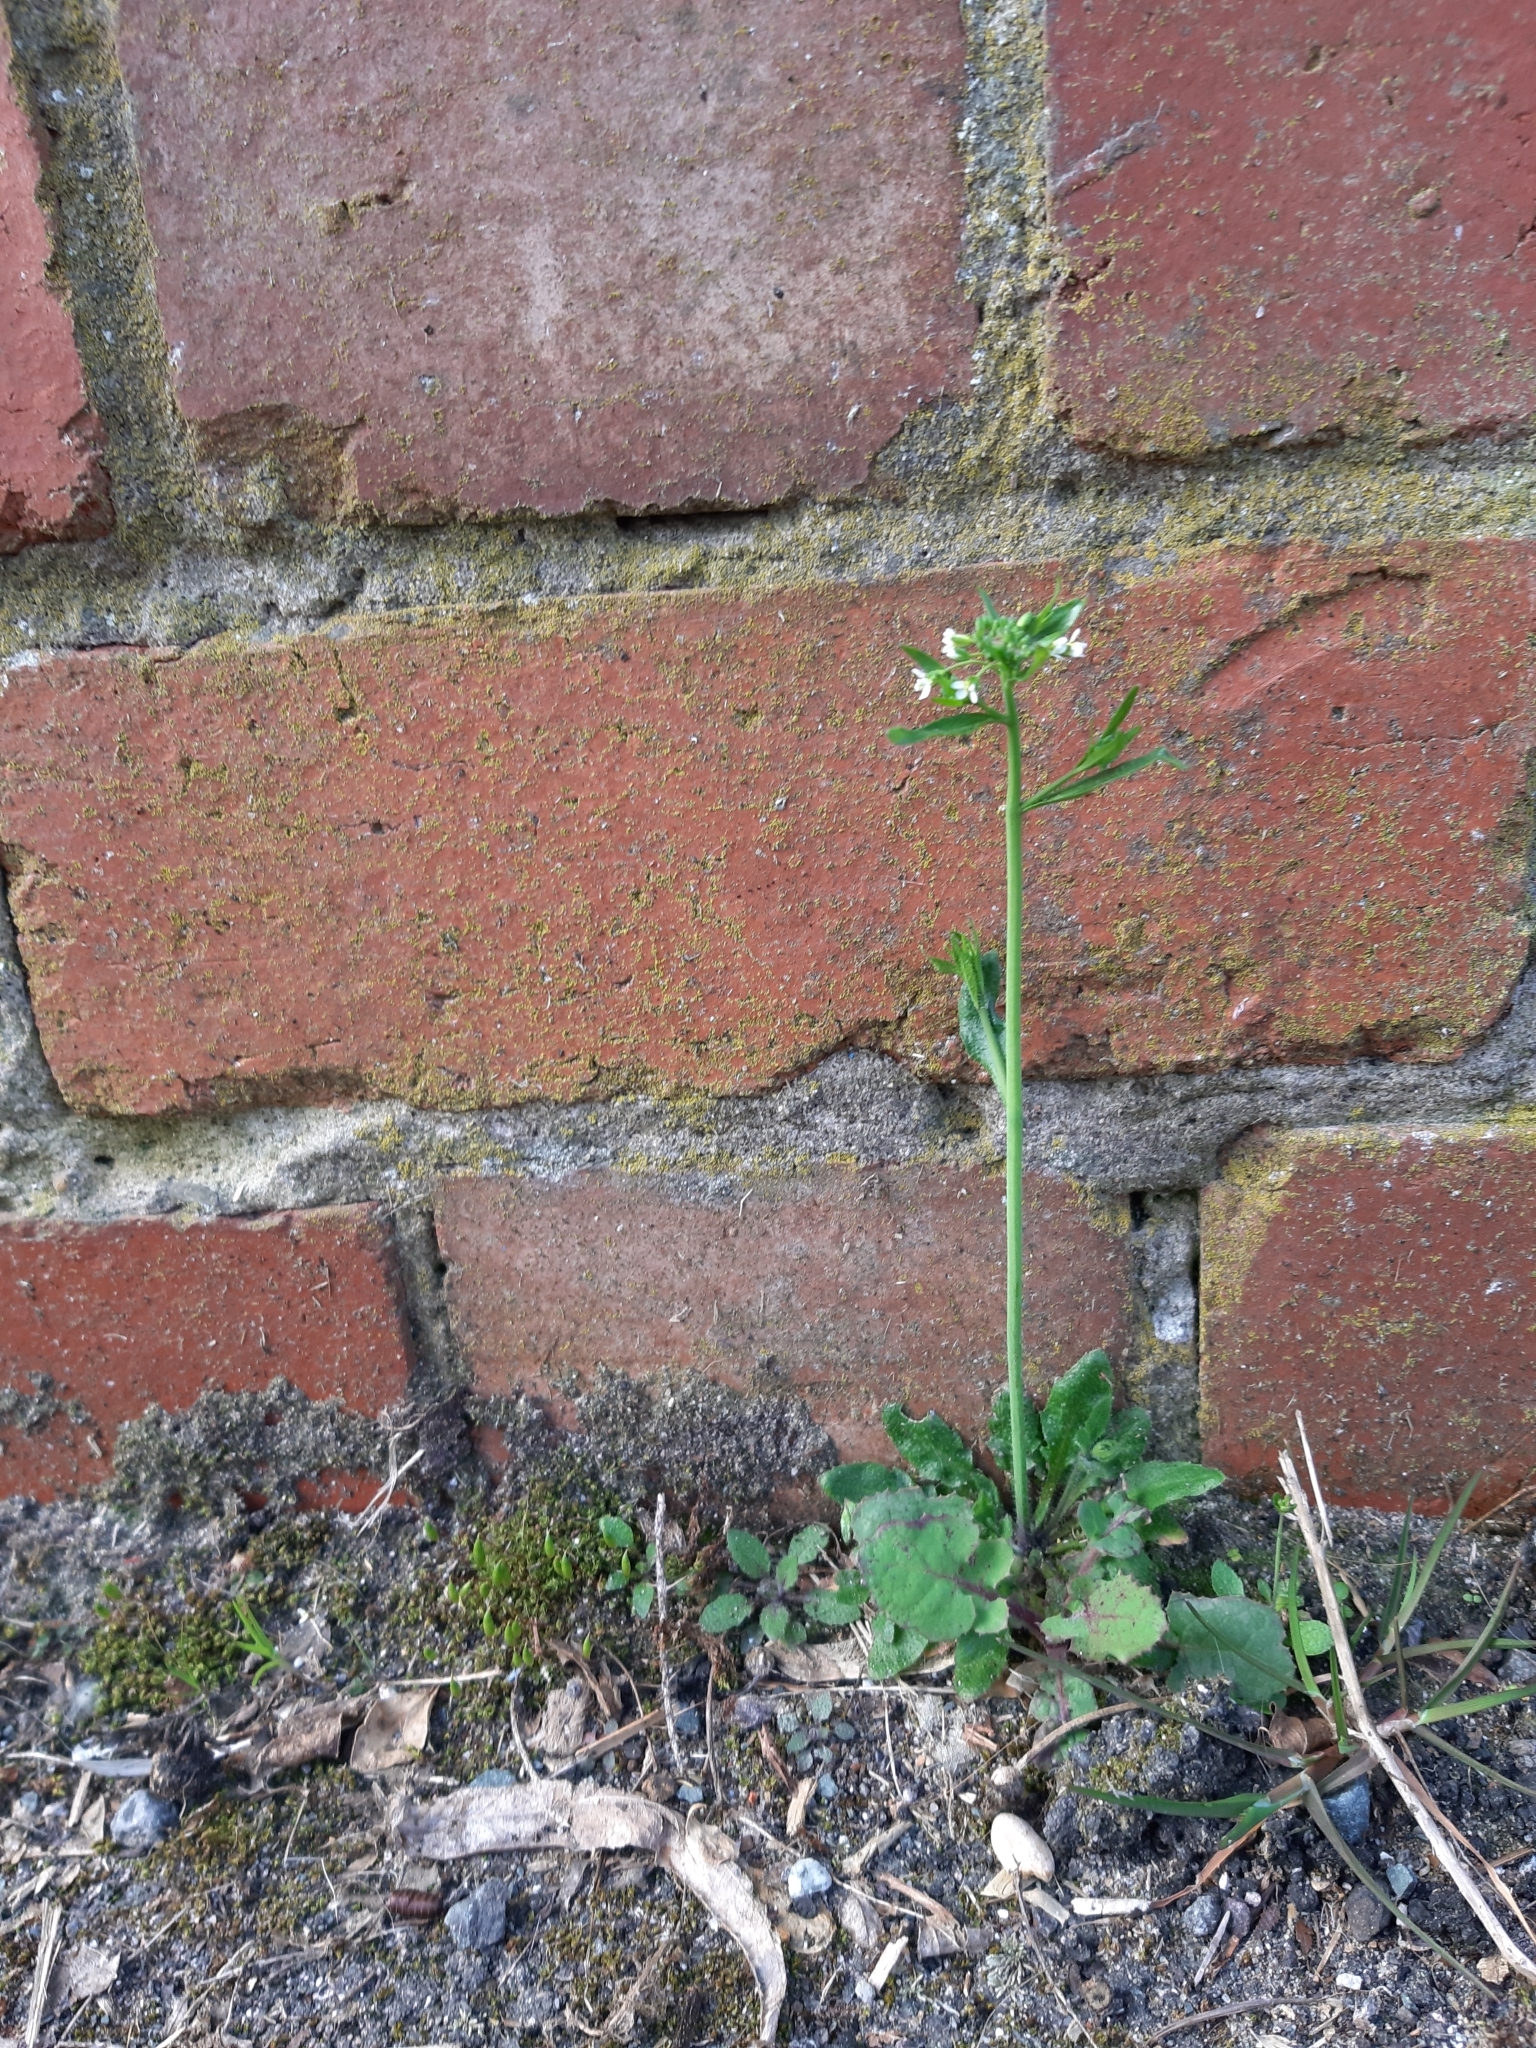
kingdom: Plantae
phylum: Tracheophyta
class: Magnoliopsida
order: Brassicales
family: Brassicaceae
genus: Capsella
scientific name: Capsella bursa-pastoris
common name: Shepherd's purse
